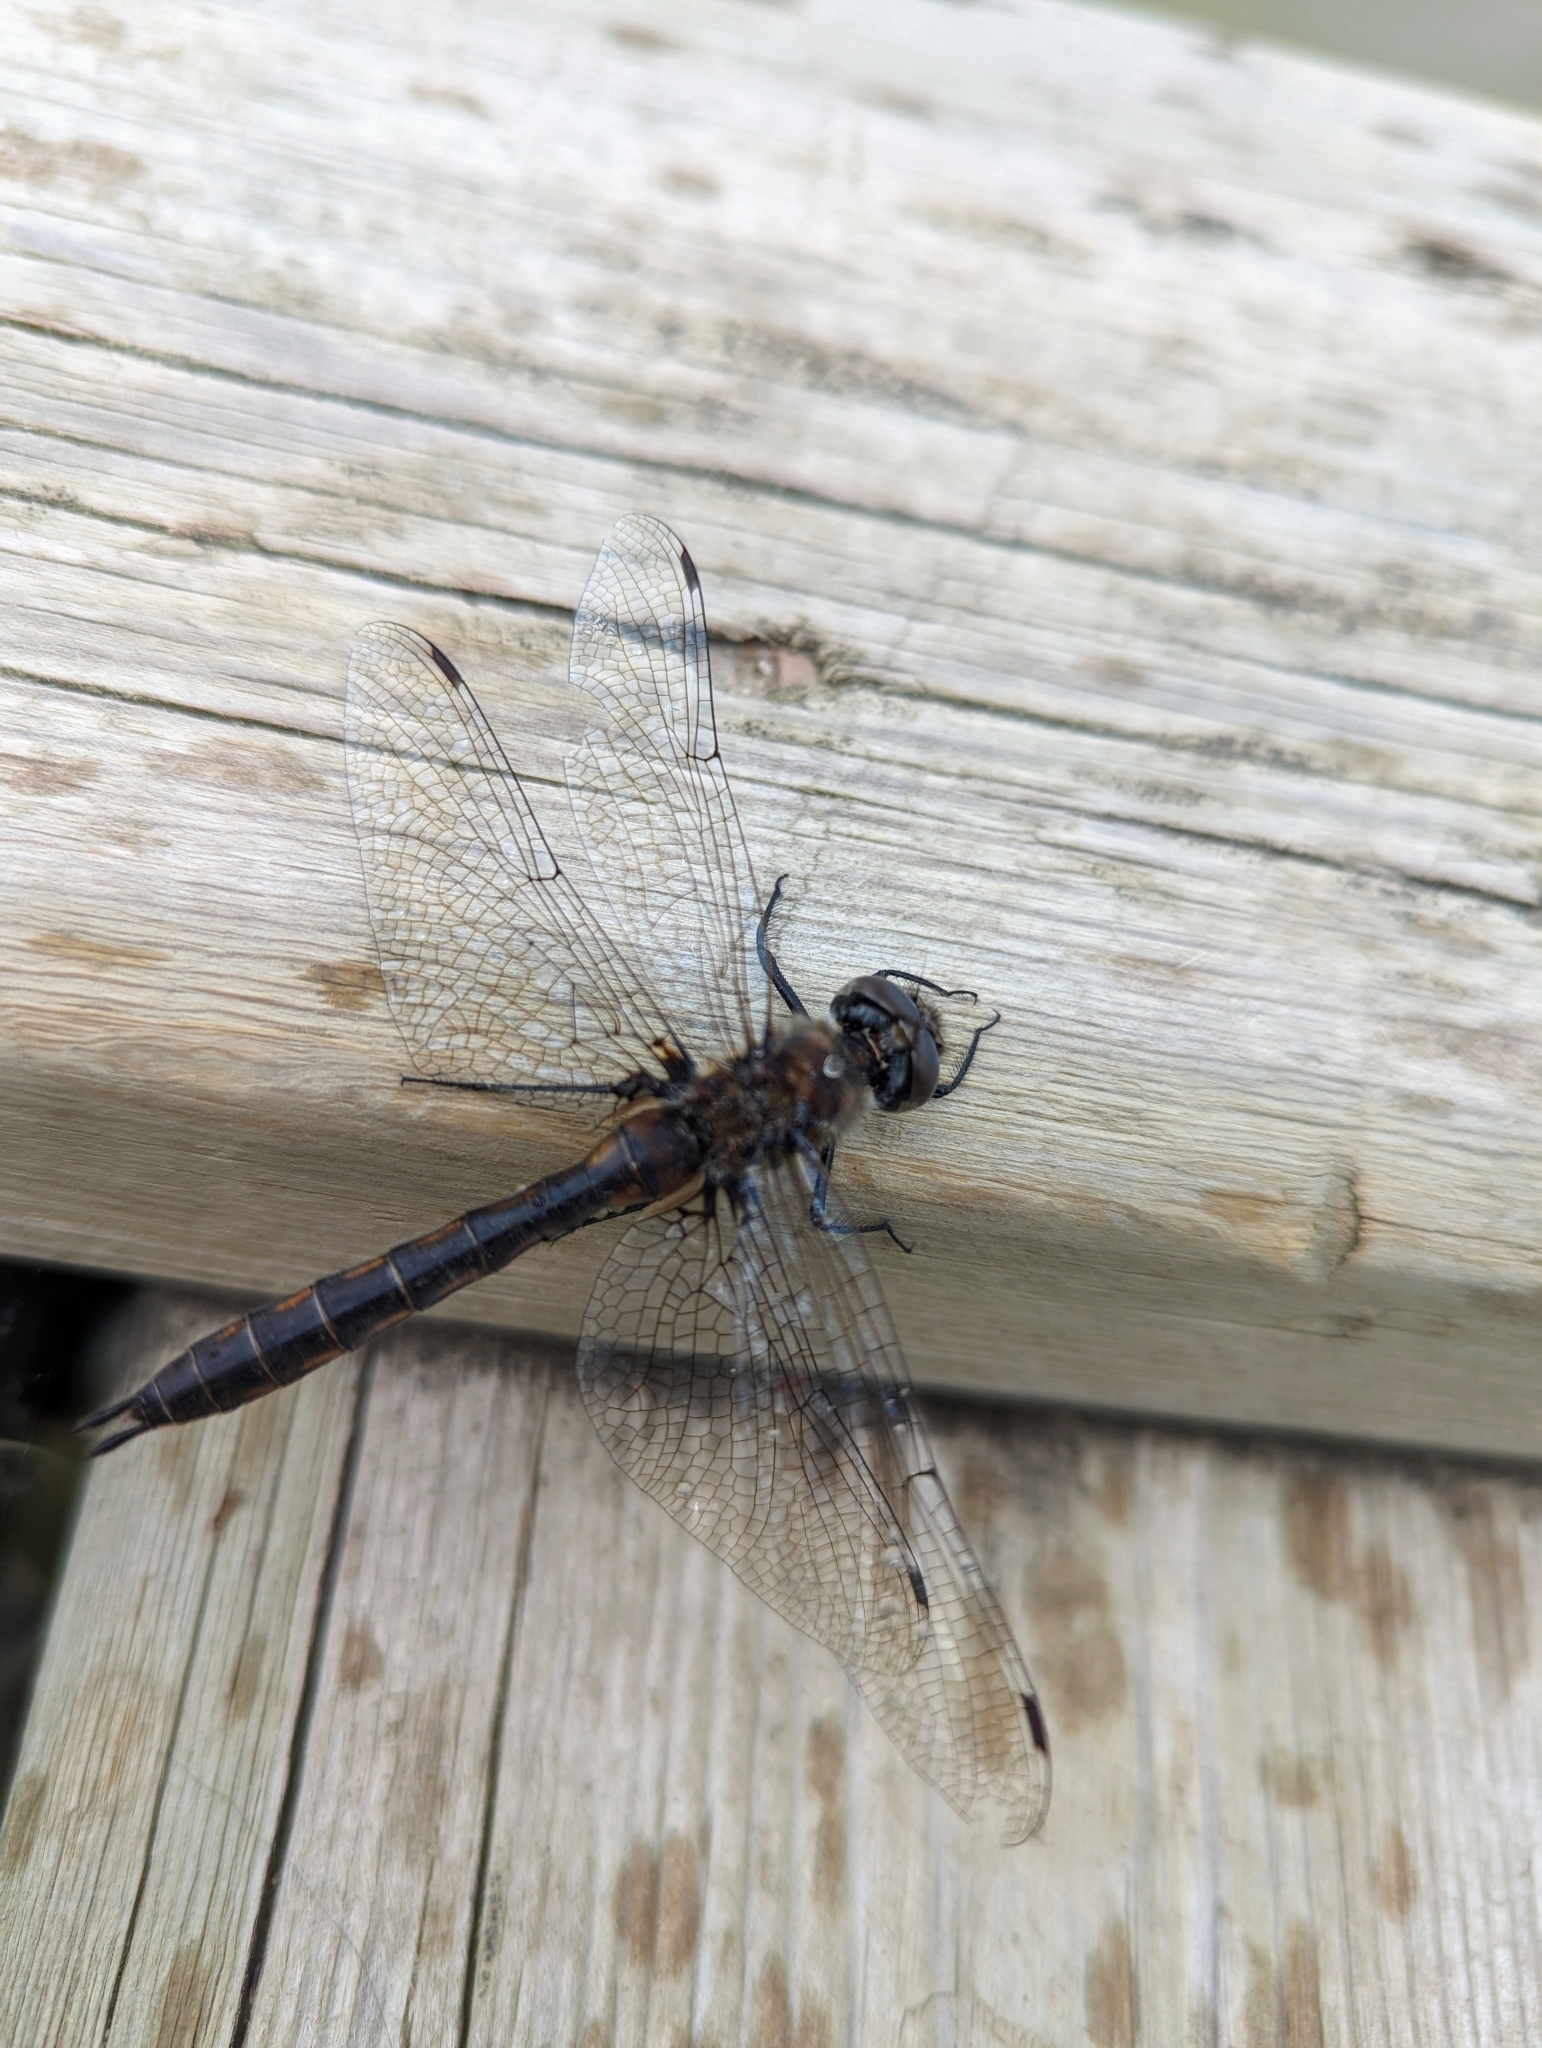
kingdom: Animalia
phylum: Arthropoda
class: Insecta
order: Odonata
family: Corduliidae
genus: Epitheca
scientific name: Epitheca spinigera
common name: Spiny baskettail
